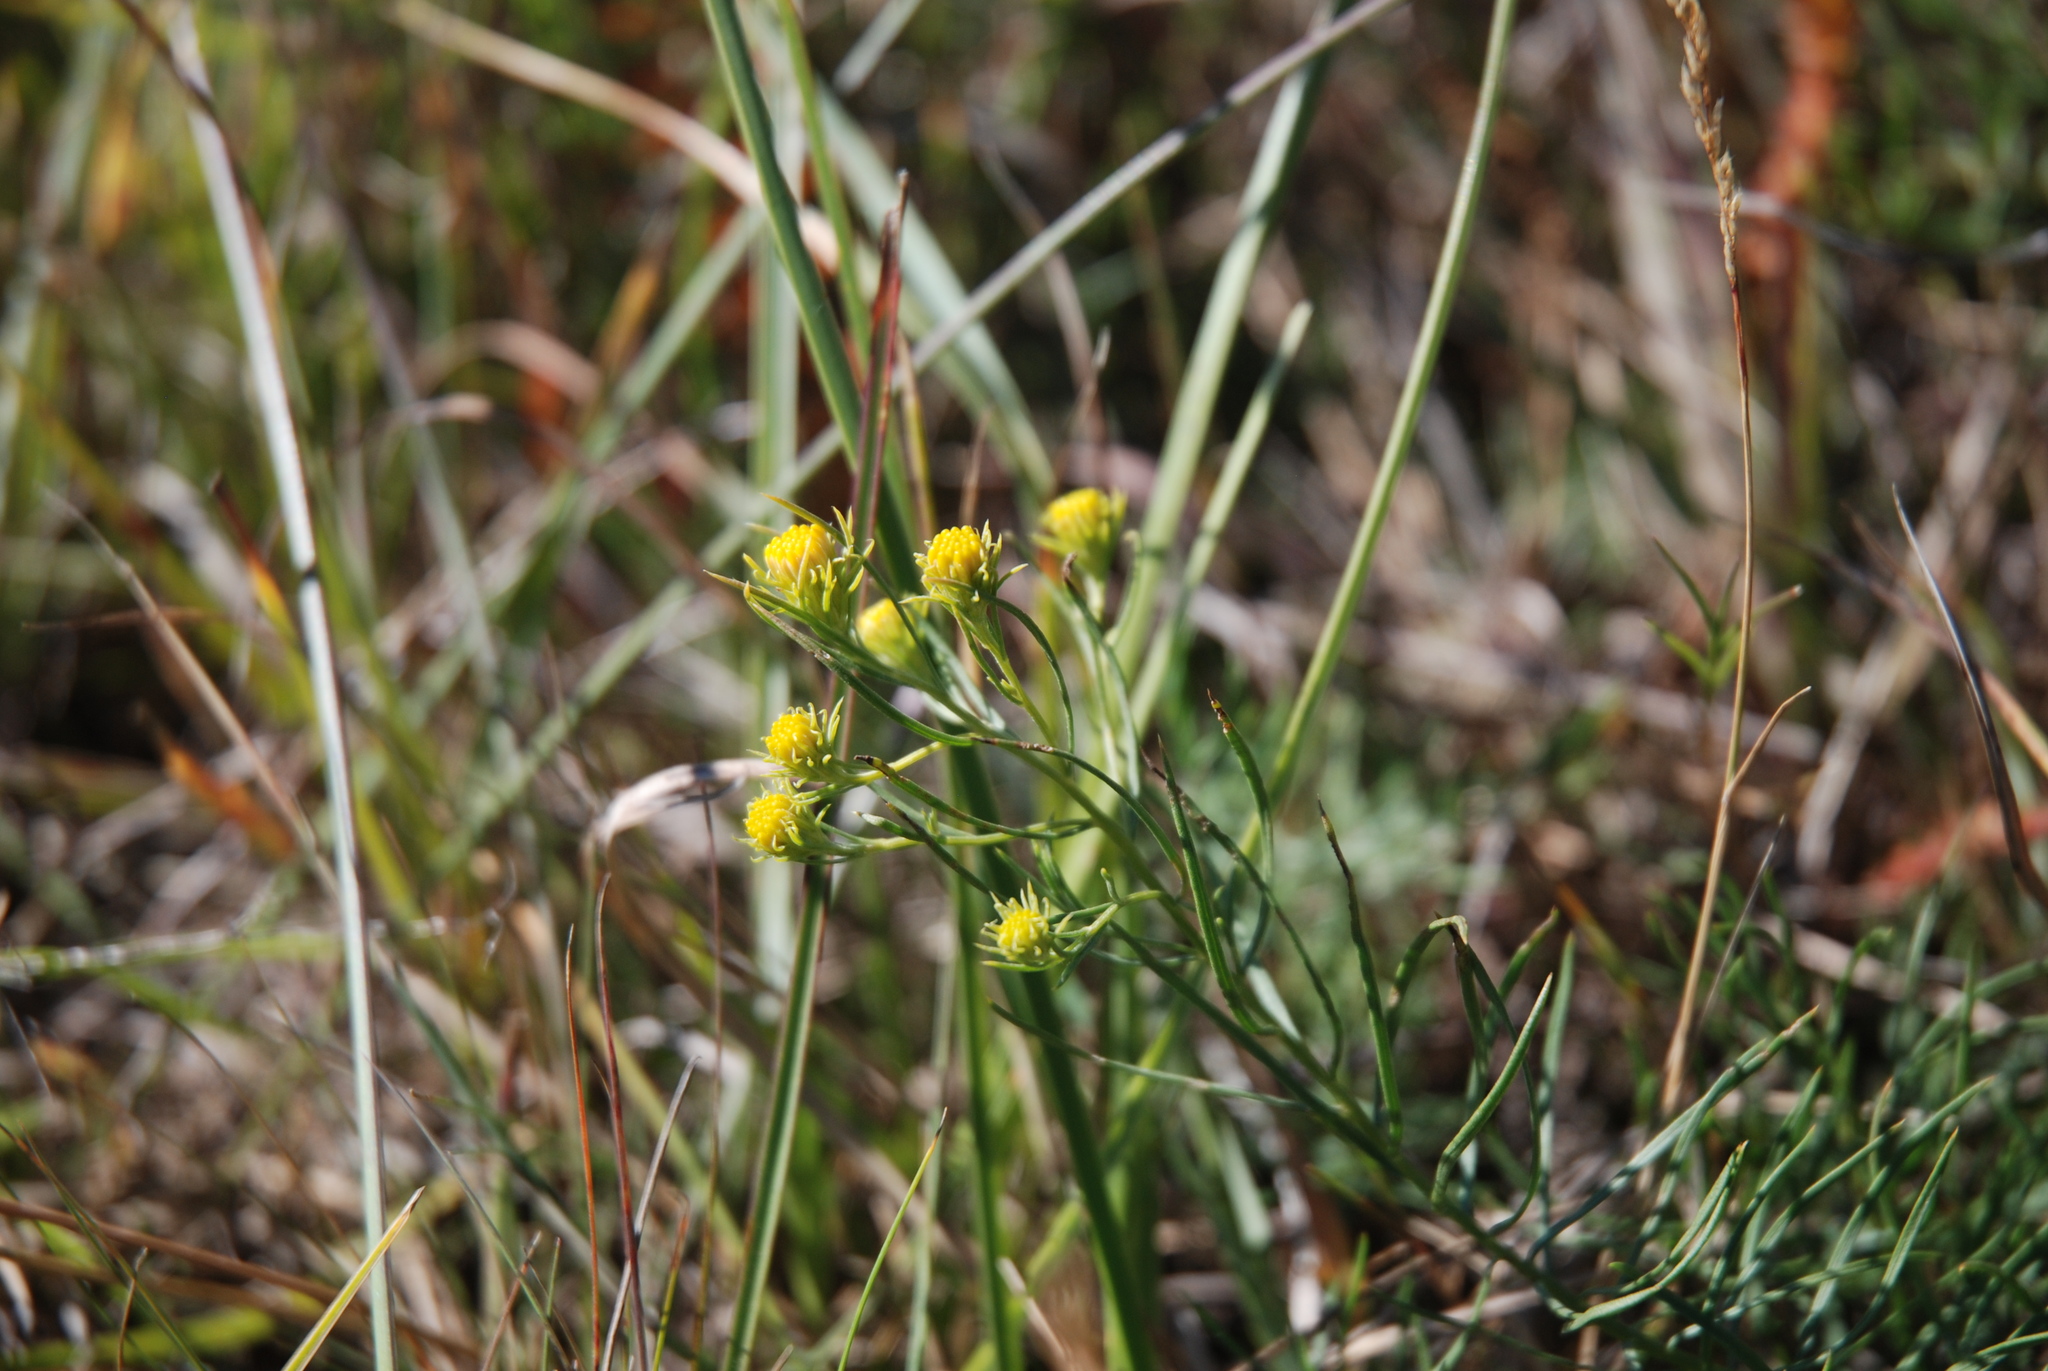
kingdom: Plantae
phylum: Tracheophyta
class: Magnoliopsida
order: Asterales
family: Asteraceae
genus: Galatella
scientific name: Galatella linosyris
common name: Goldilocks aster
